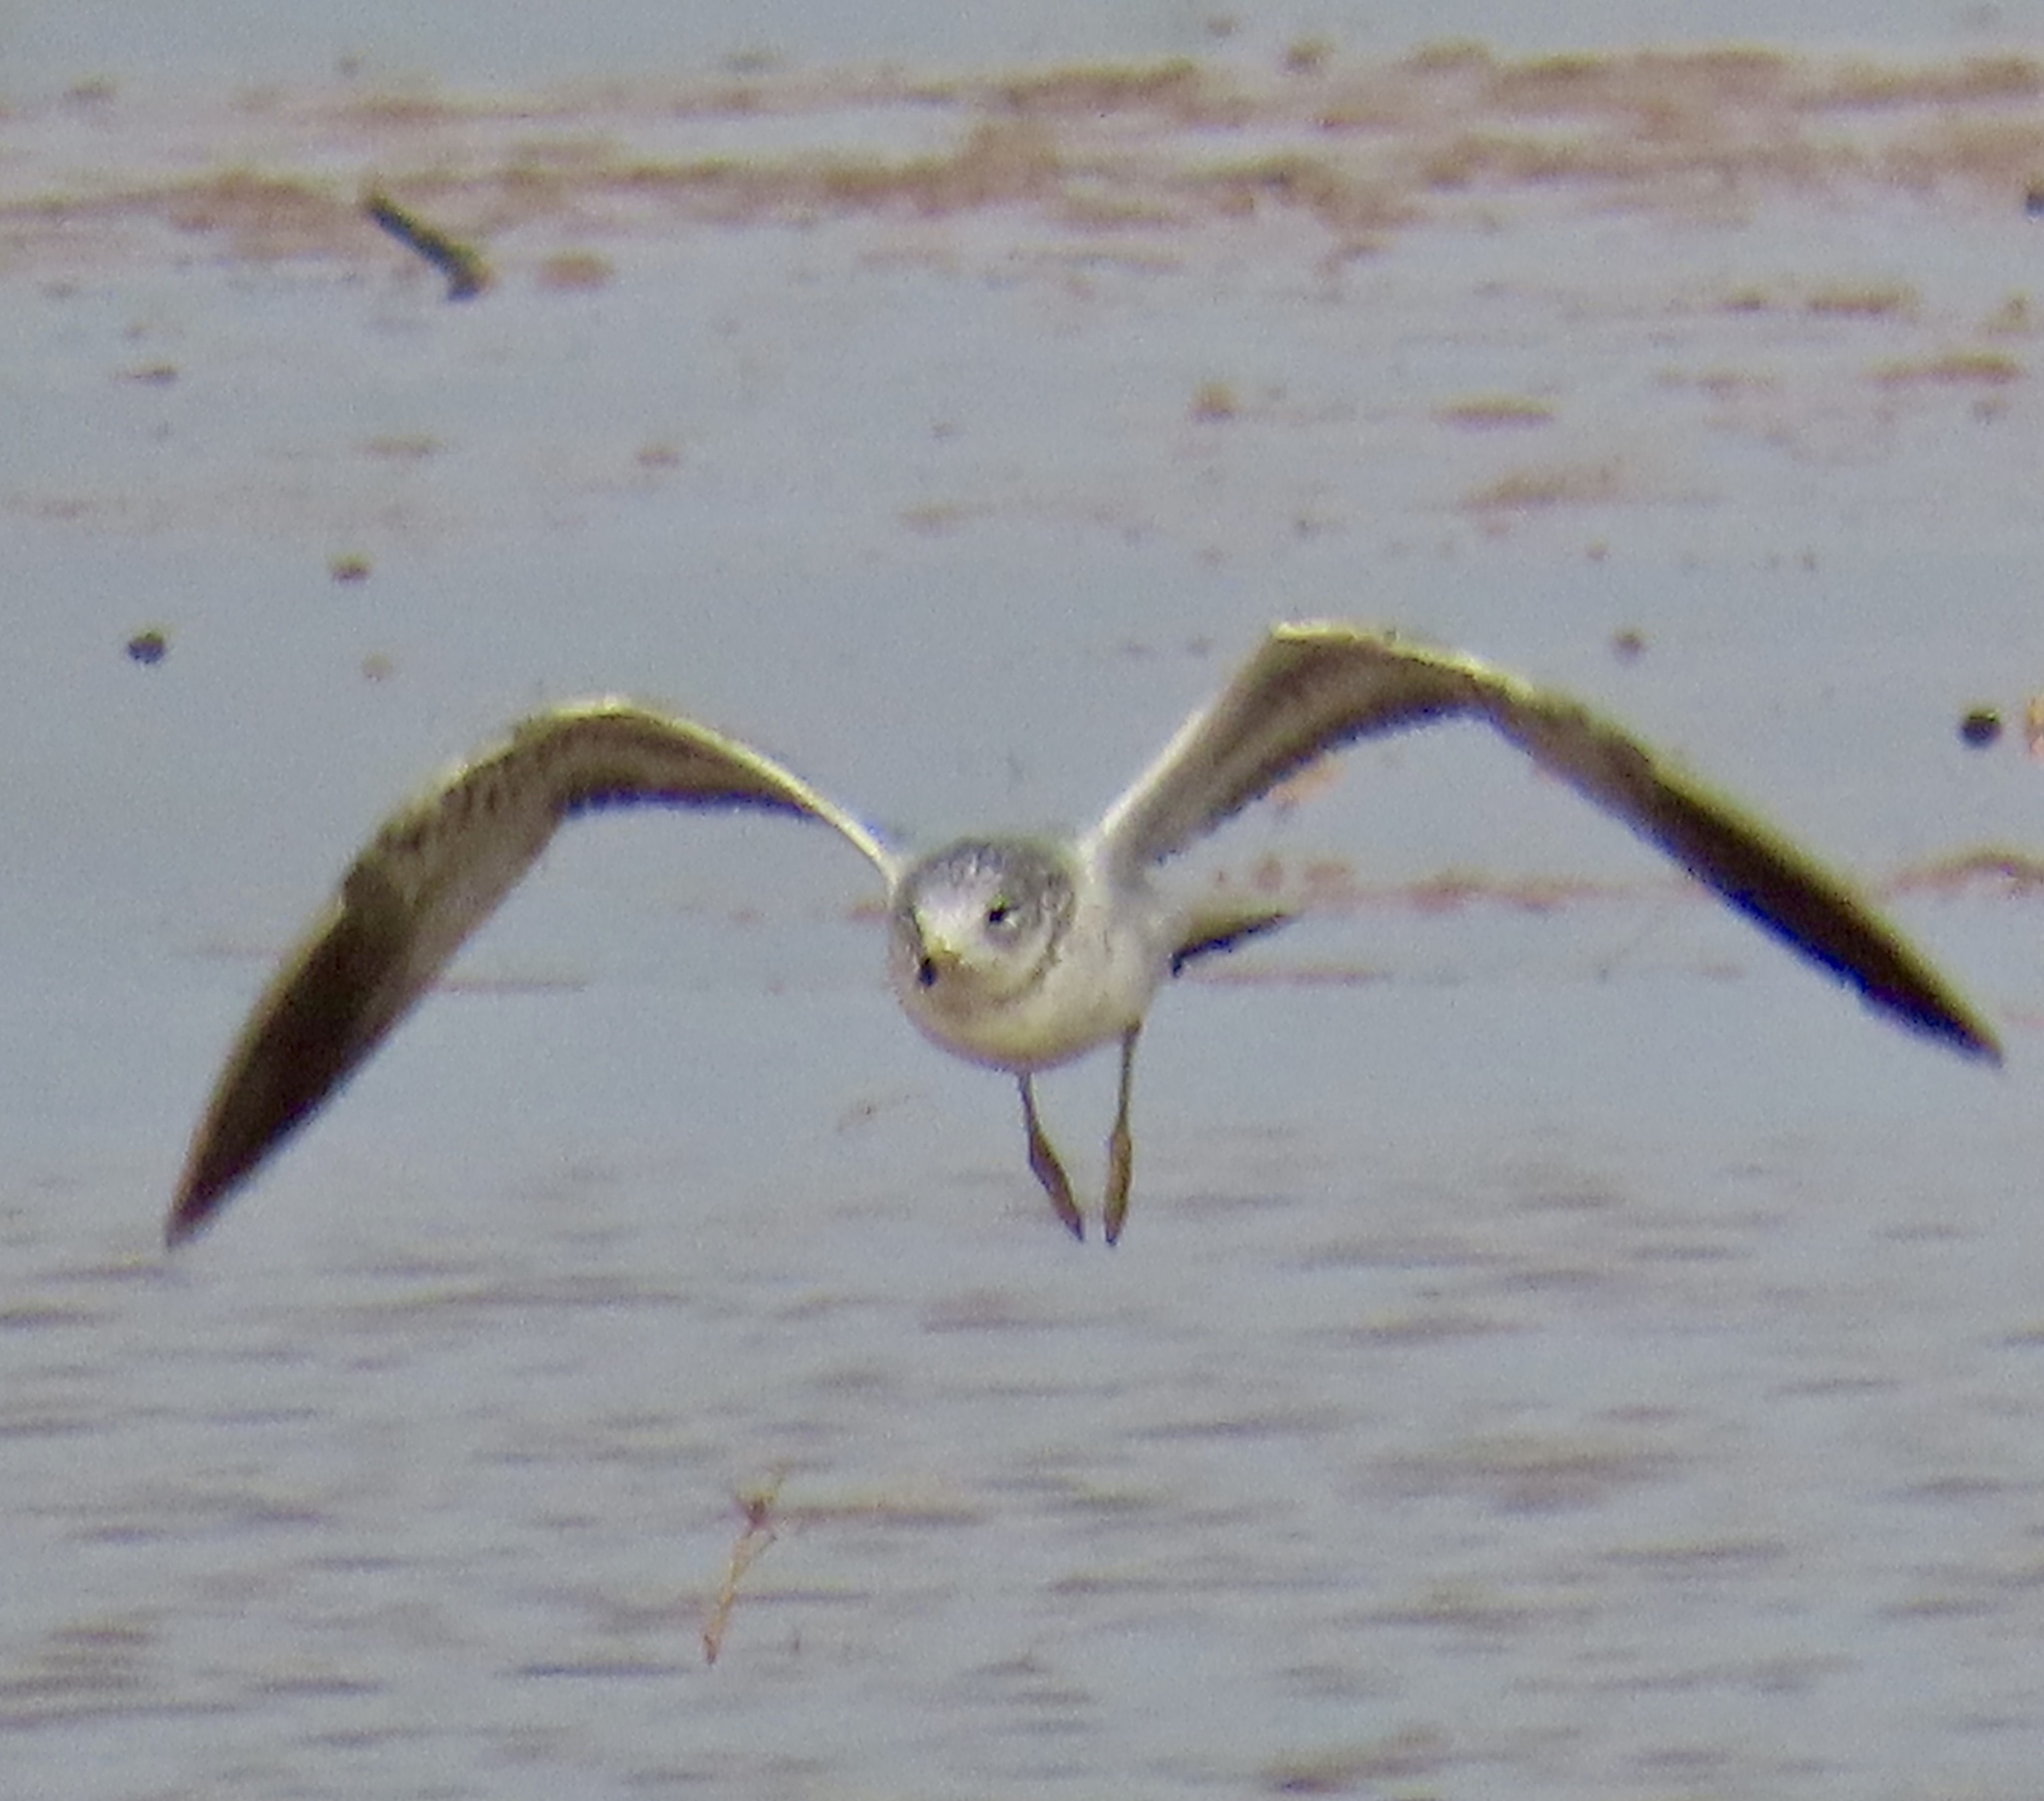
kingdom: Animalia
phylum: Chordata
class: Aves
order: Charadriiformes
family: Laridae
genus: Larus
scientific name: Larus delawarensis
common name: Ring-billed gull
